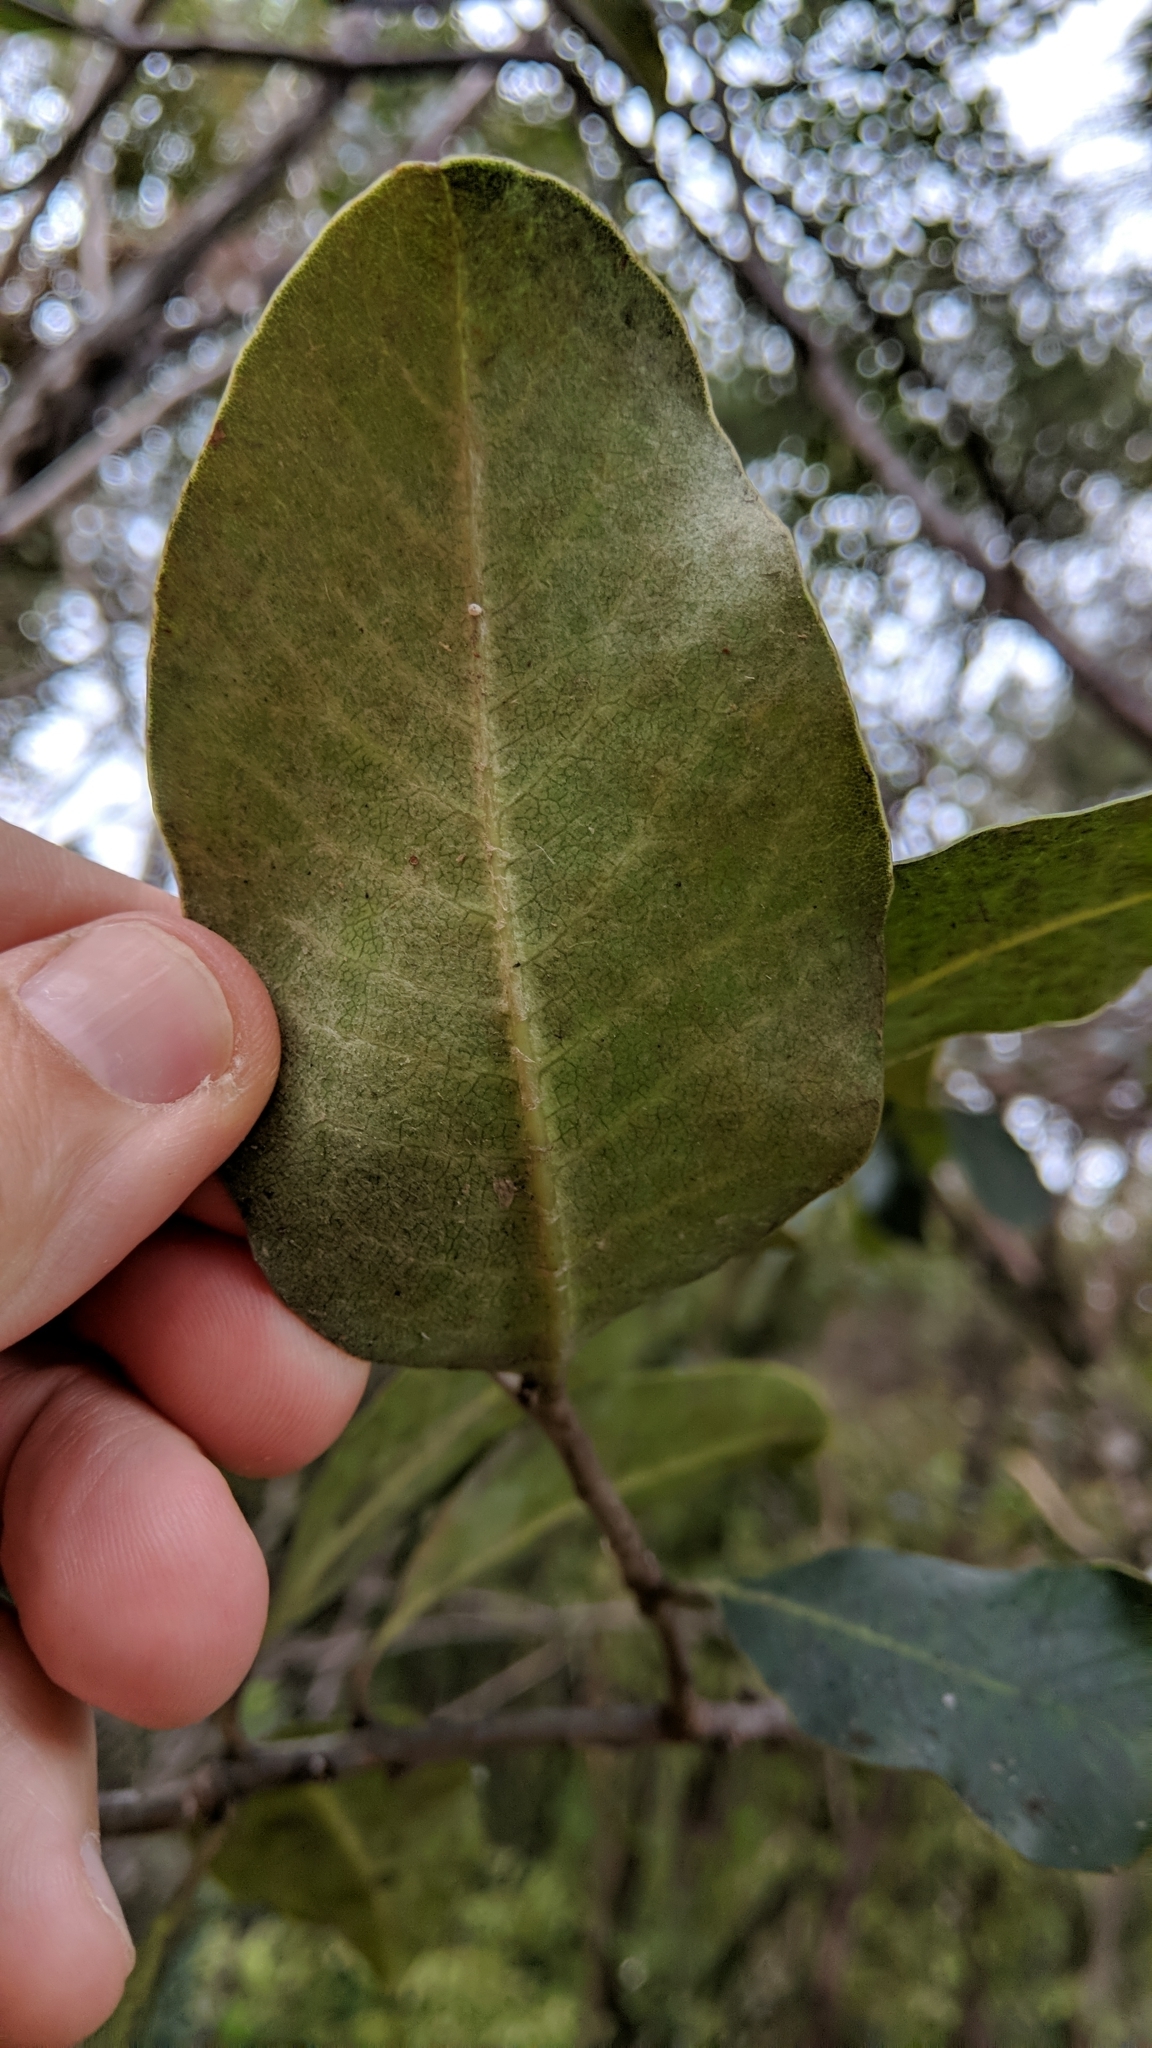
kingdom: Plantae
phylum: Tracheophyta
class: Magnoliopsida
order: Apiales
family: Pittosporaceae
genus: Pittosporum
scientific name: Pittosporum crassifolium
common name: Karo
